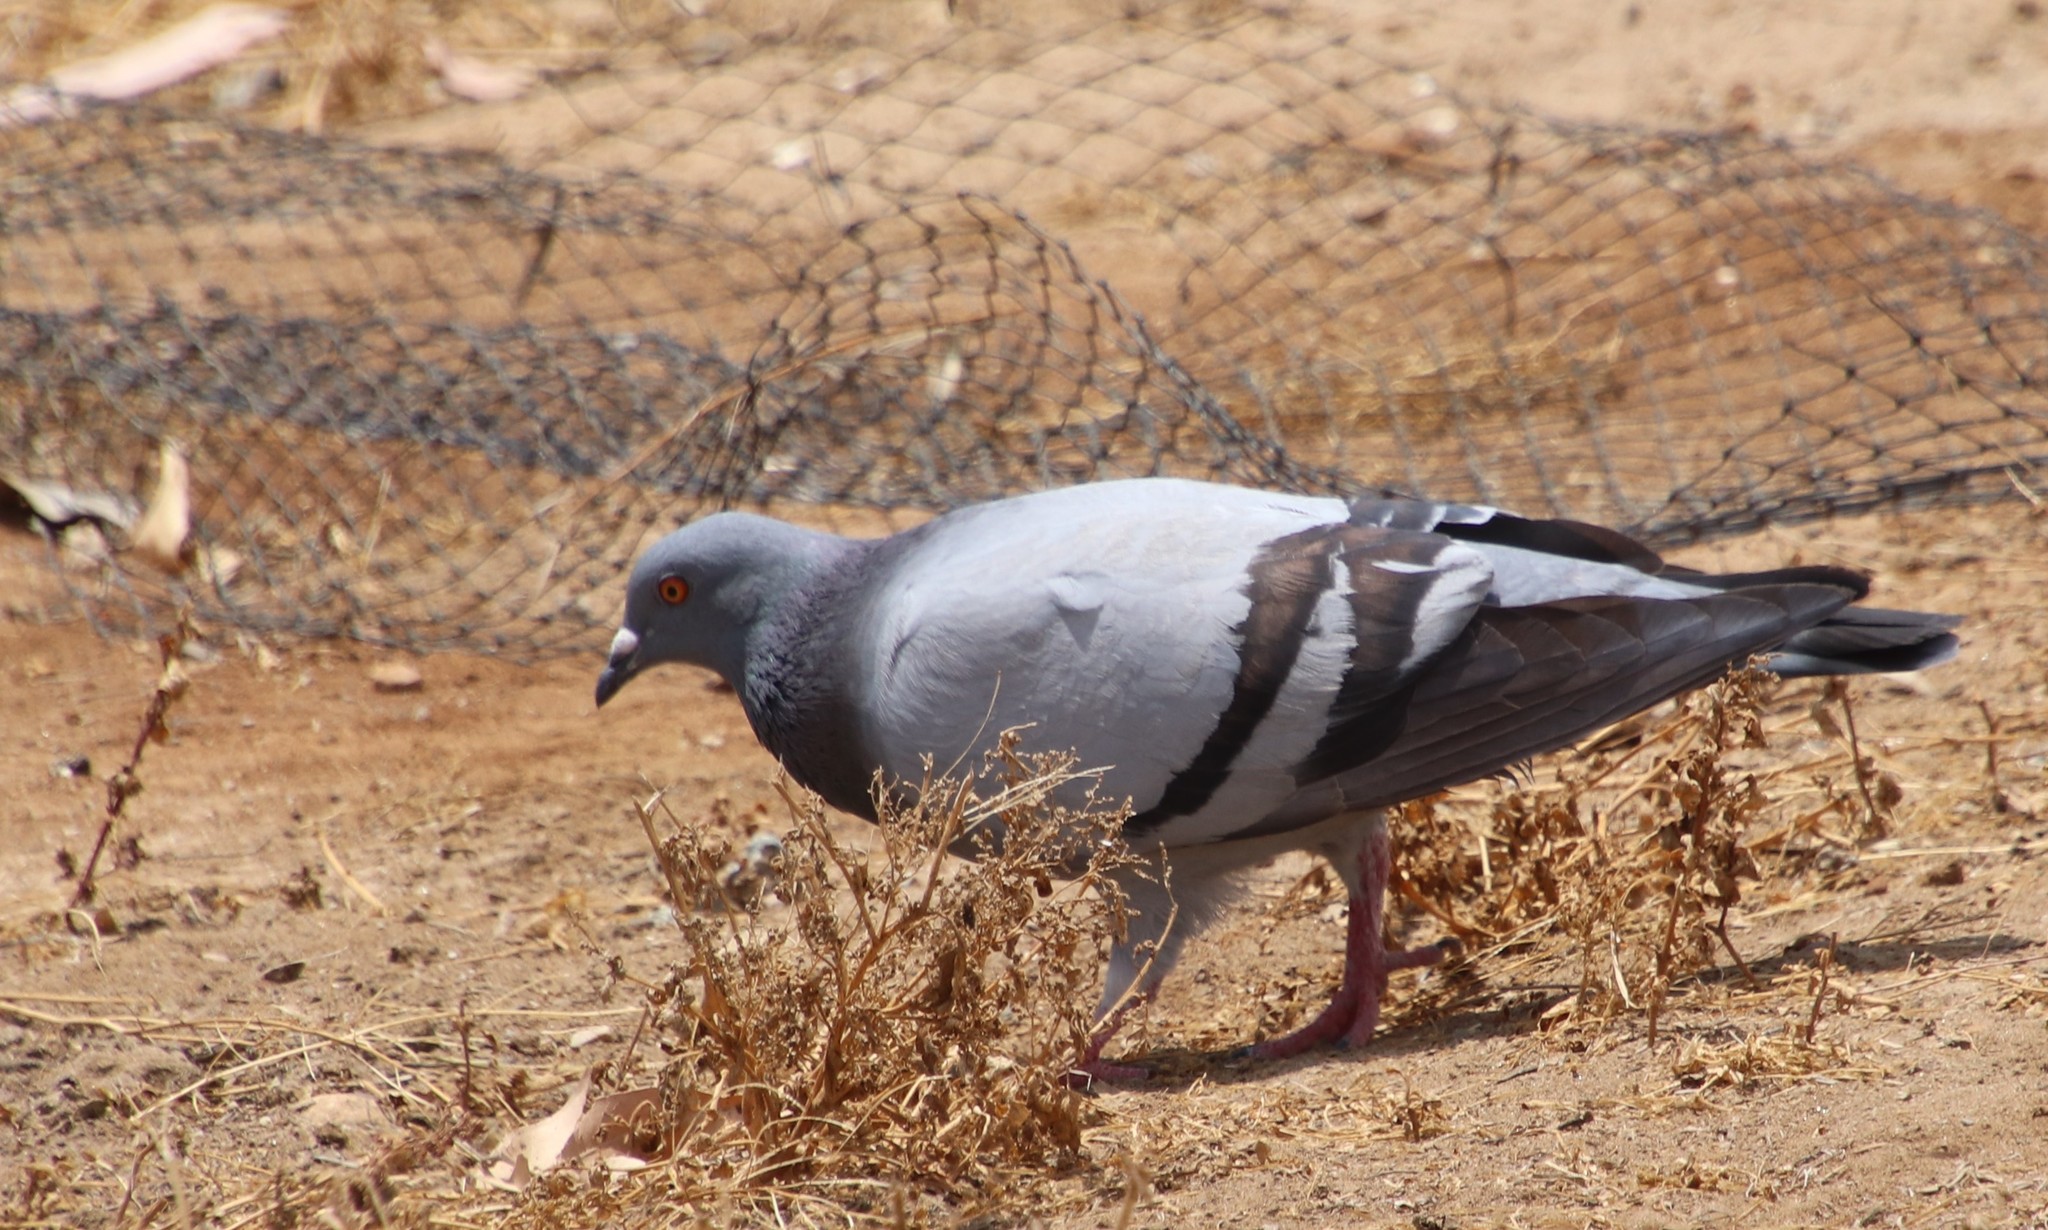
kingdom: Animalia
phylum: Chordata
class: Aves
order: Columbiformes
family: Columbidae
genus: Columba
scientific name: Columba livia
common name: Rock pigeon
